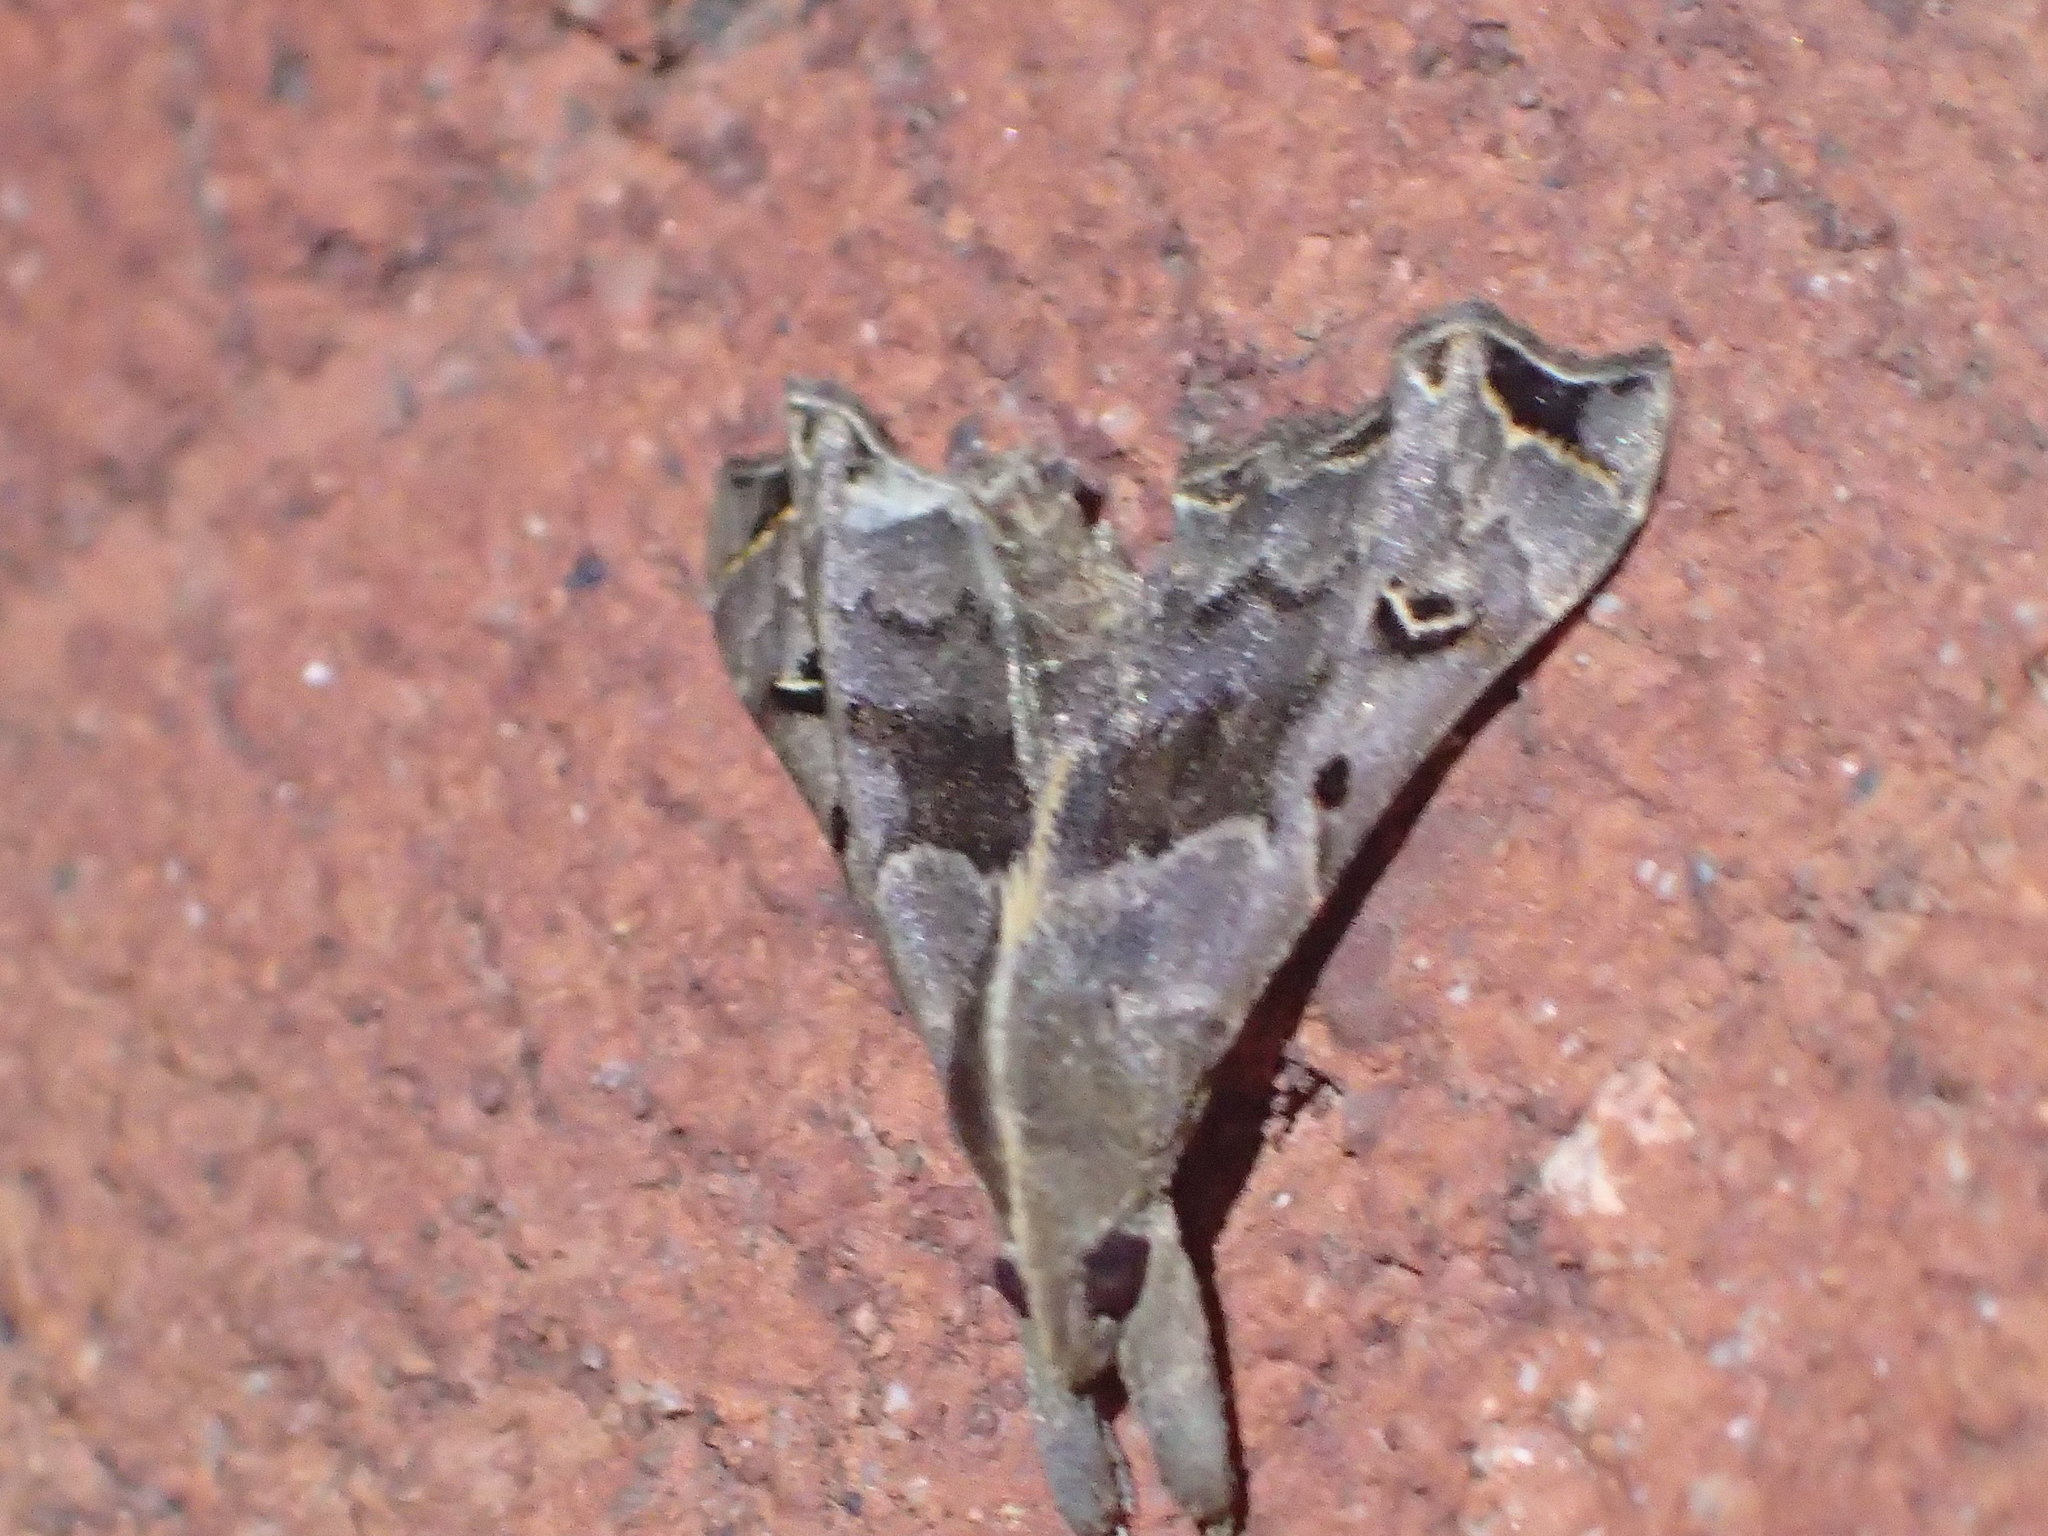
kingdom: Animalia
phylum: Arthropoda
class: Insecta
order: Lepidoptera
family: Erebidae
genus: Palthis
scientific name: Palthis asopialis
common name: Faint-spotted palthis moth
